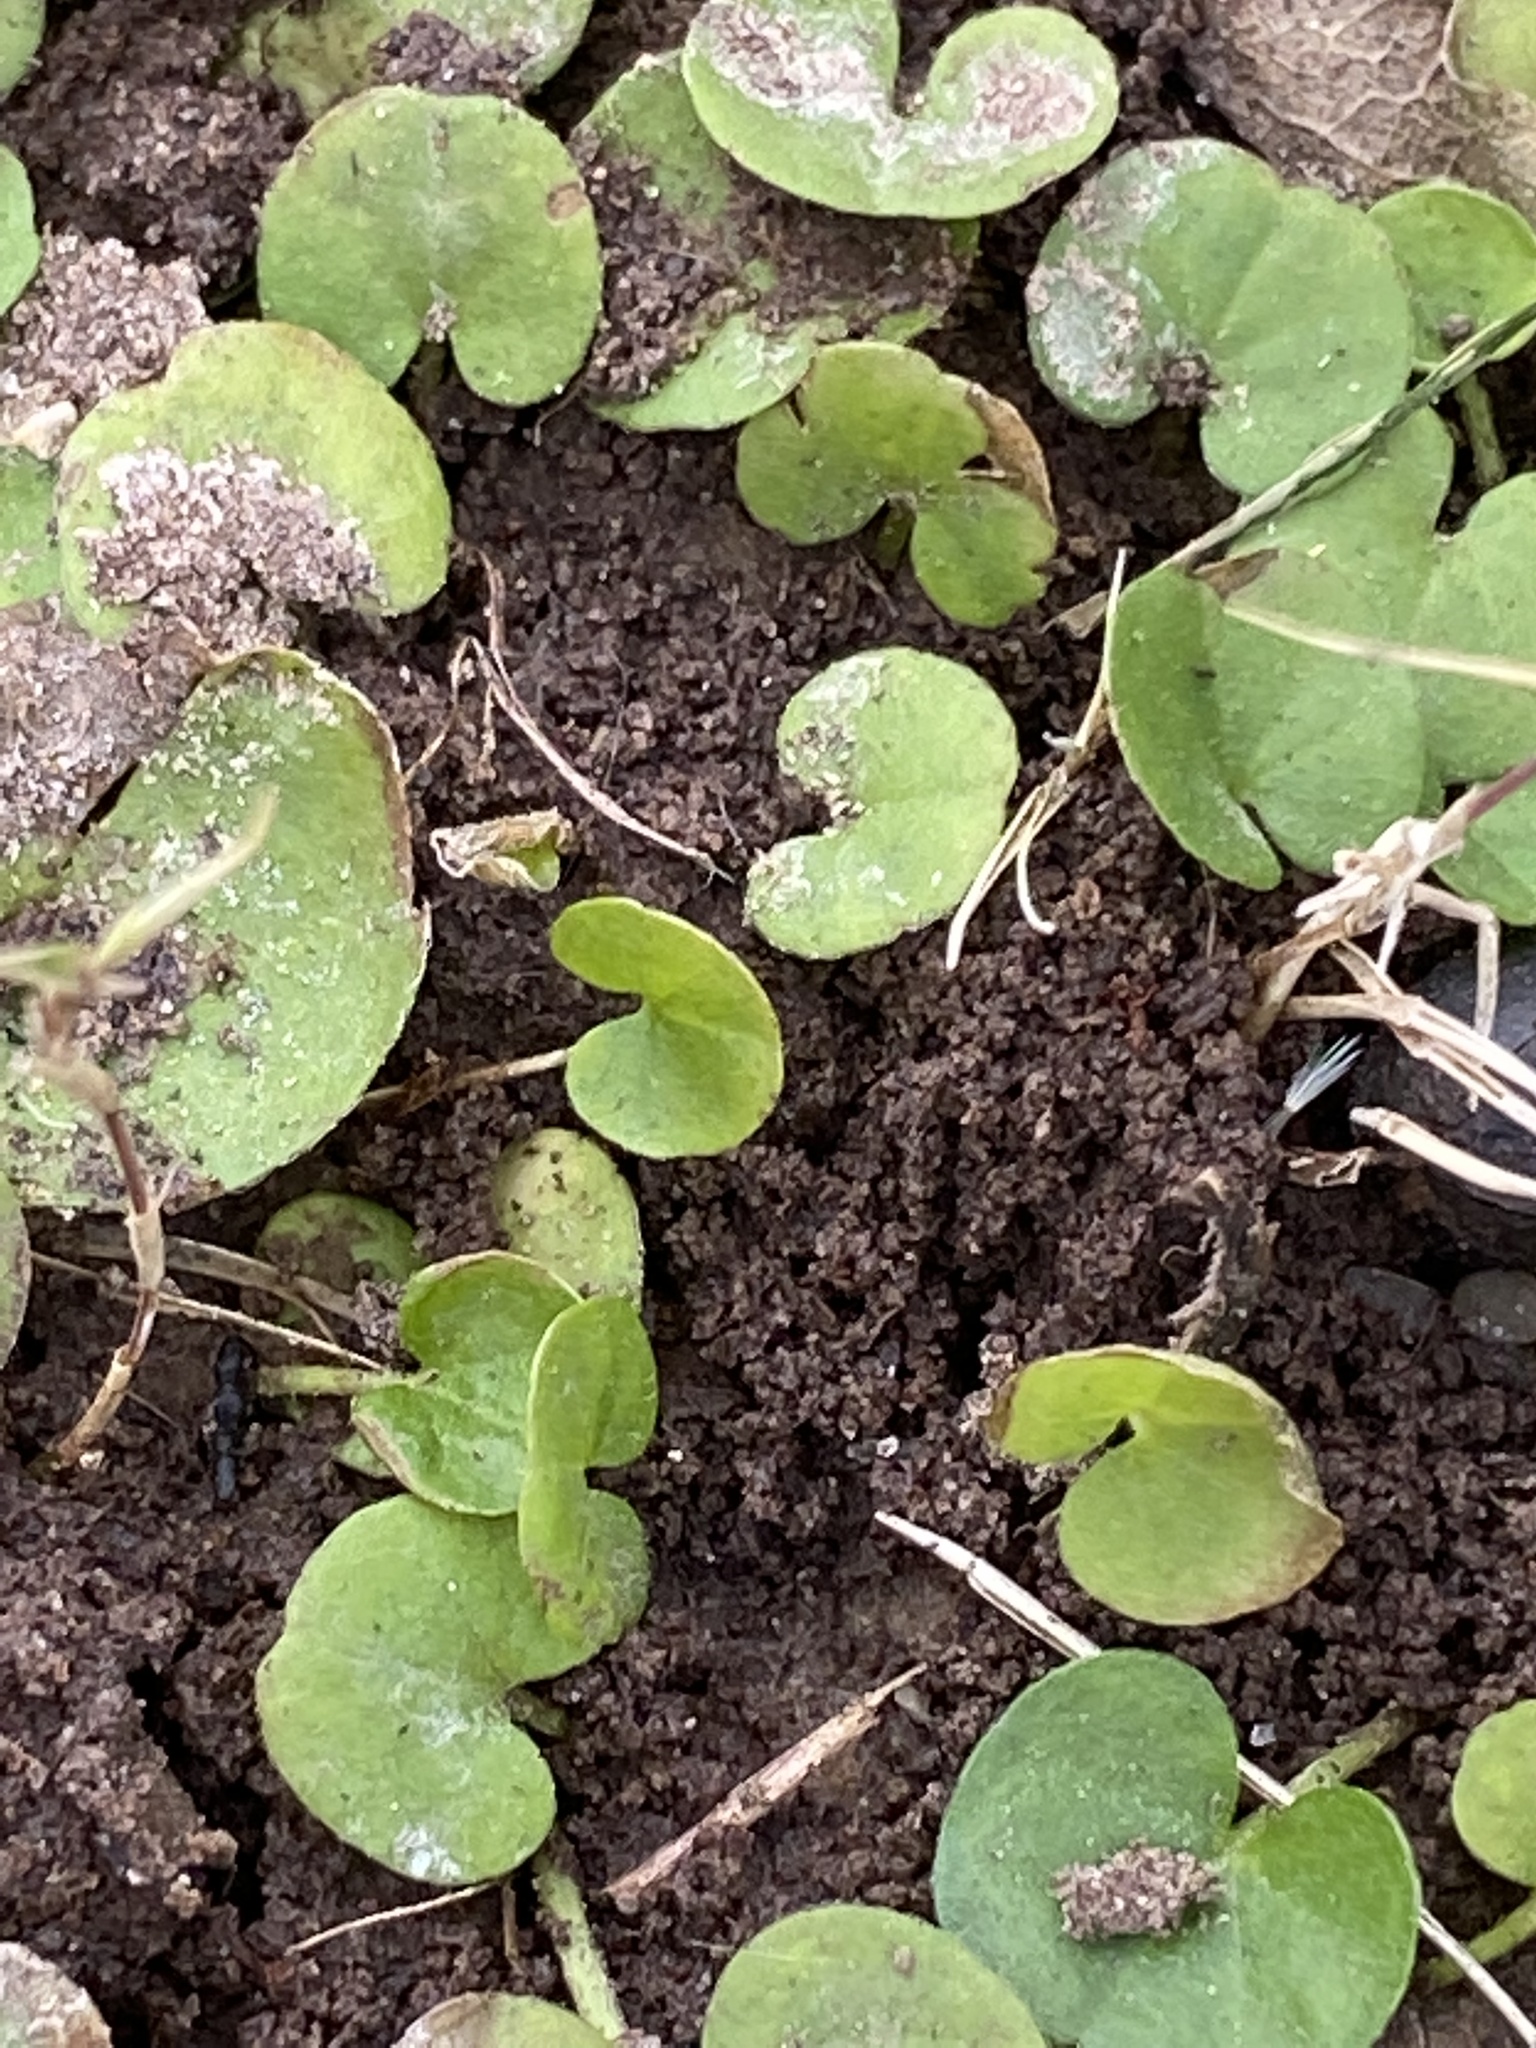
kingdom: Plantae
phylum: Tracheophyta
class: Magnoliopsida
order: Solanales
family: Convolvulaceae
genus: Dichondra
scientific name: Dichondra carolinensis
